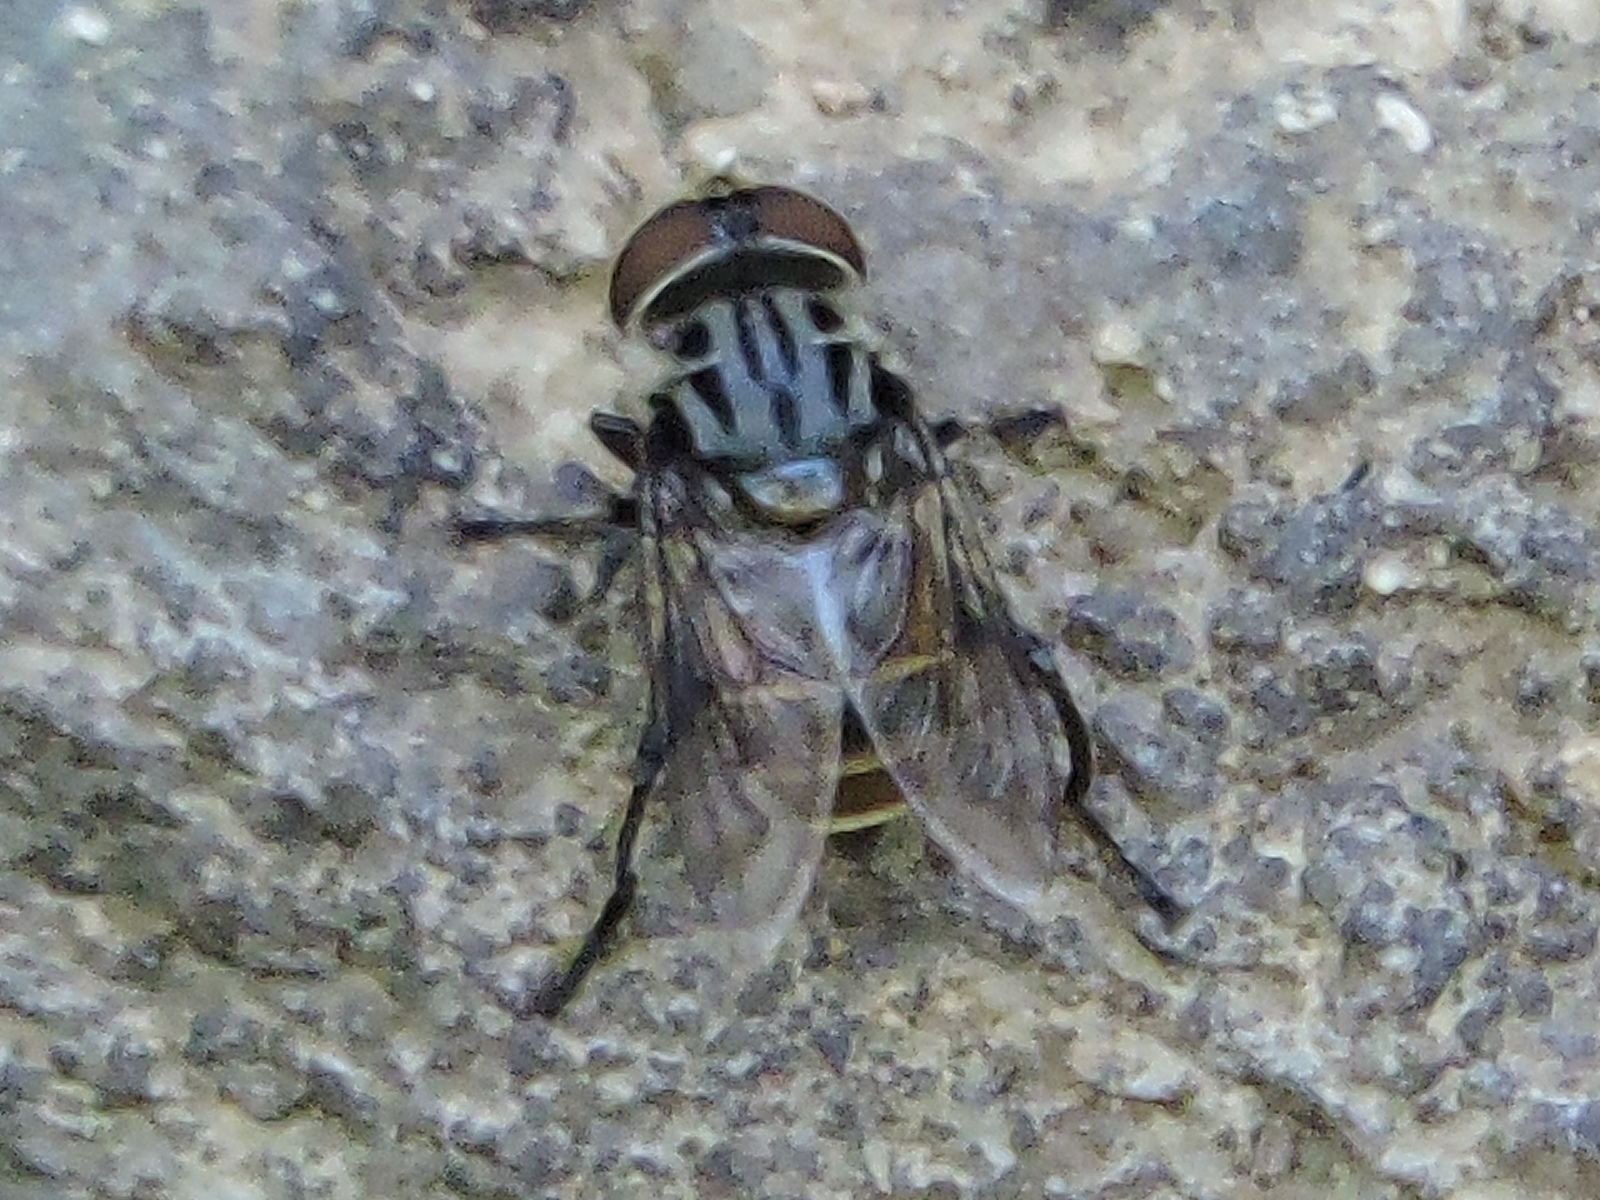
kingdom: Animalia
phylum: Arthropoda
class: Insecta
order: Diptera
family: Syrphidae
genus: Palpada
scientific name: Palpada furcata
